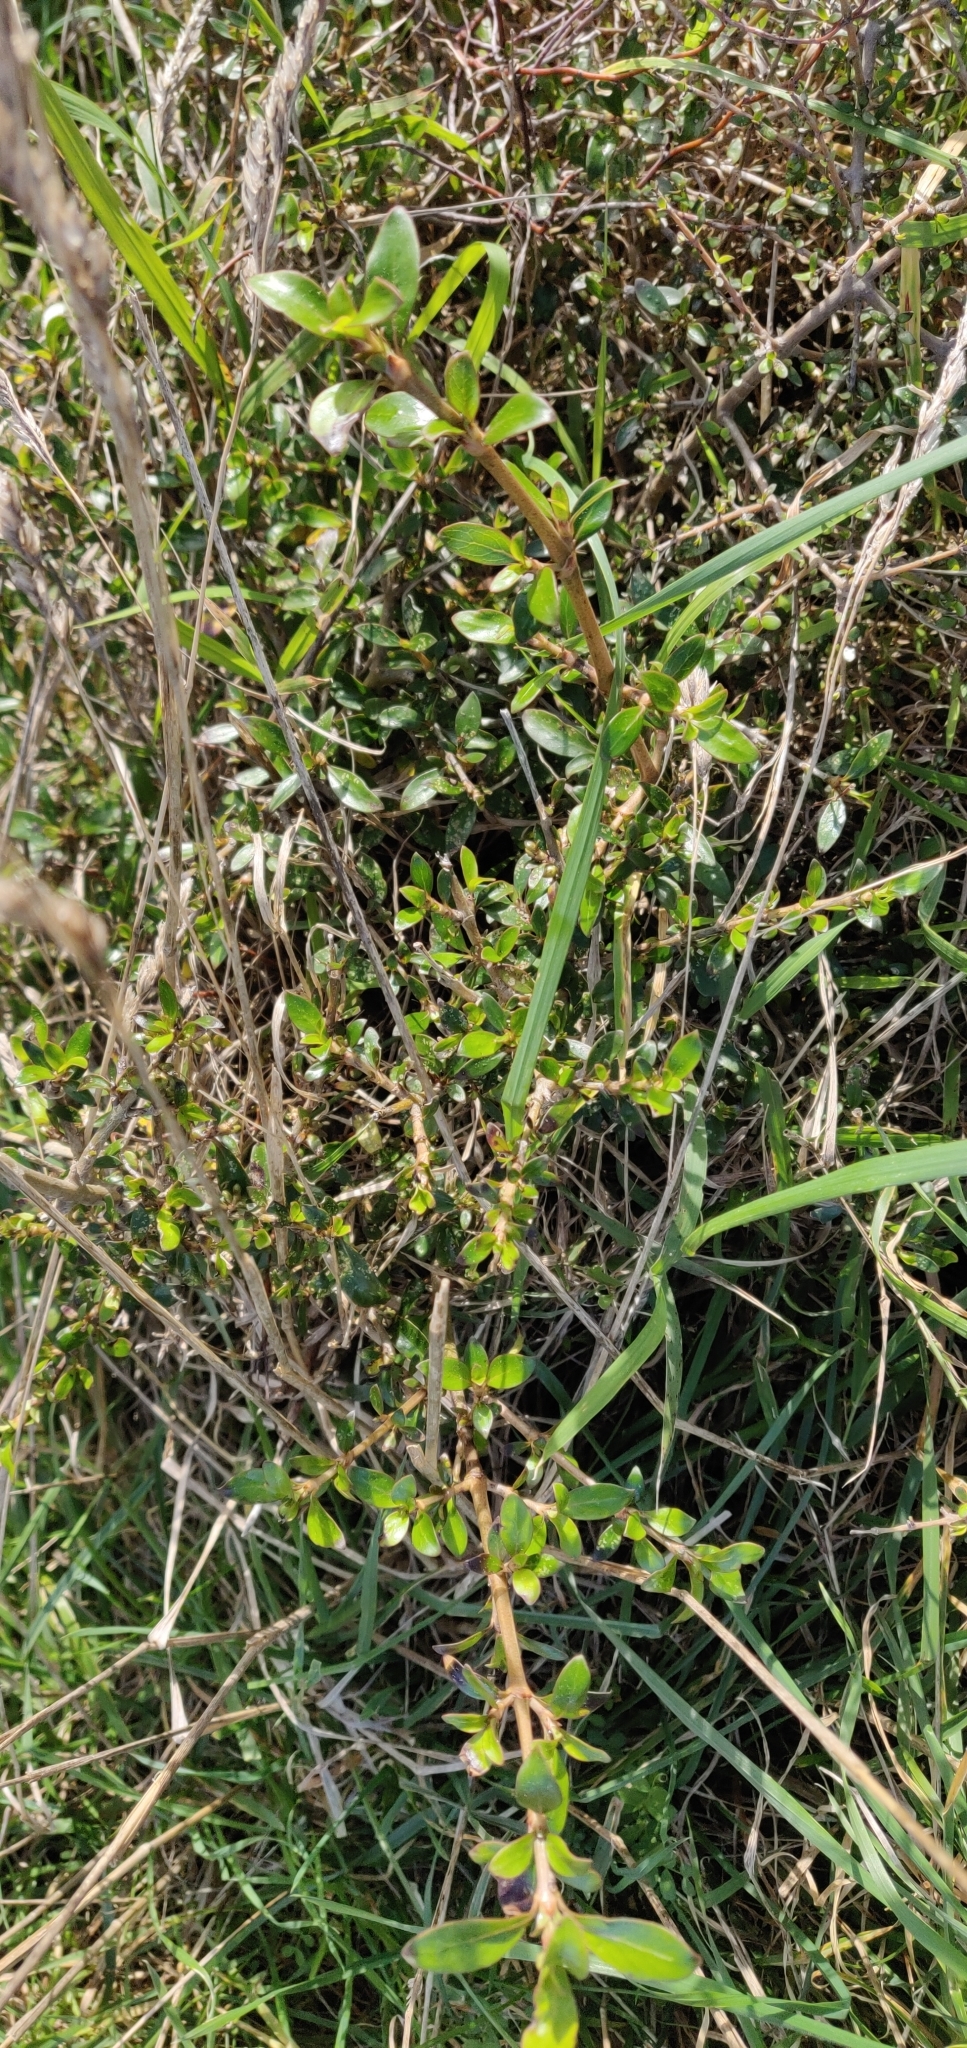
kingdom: Plantae
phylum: Tracheophyta
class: Magnoliopsida
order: Gentianales
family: Rubiaceae
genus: Coprosma
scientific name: Coprosma cunninghamii
